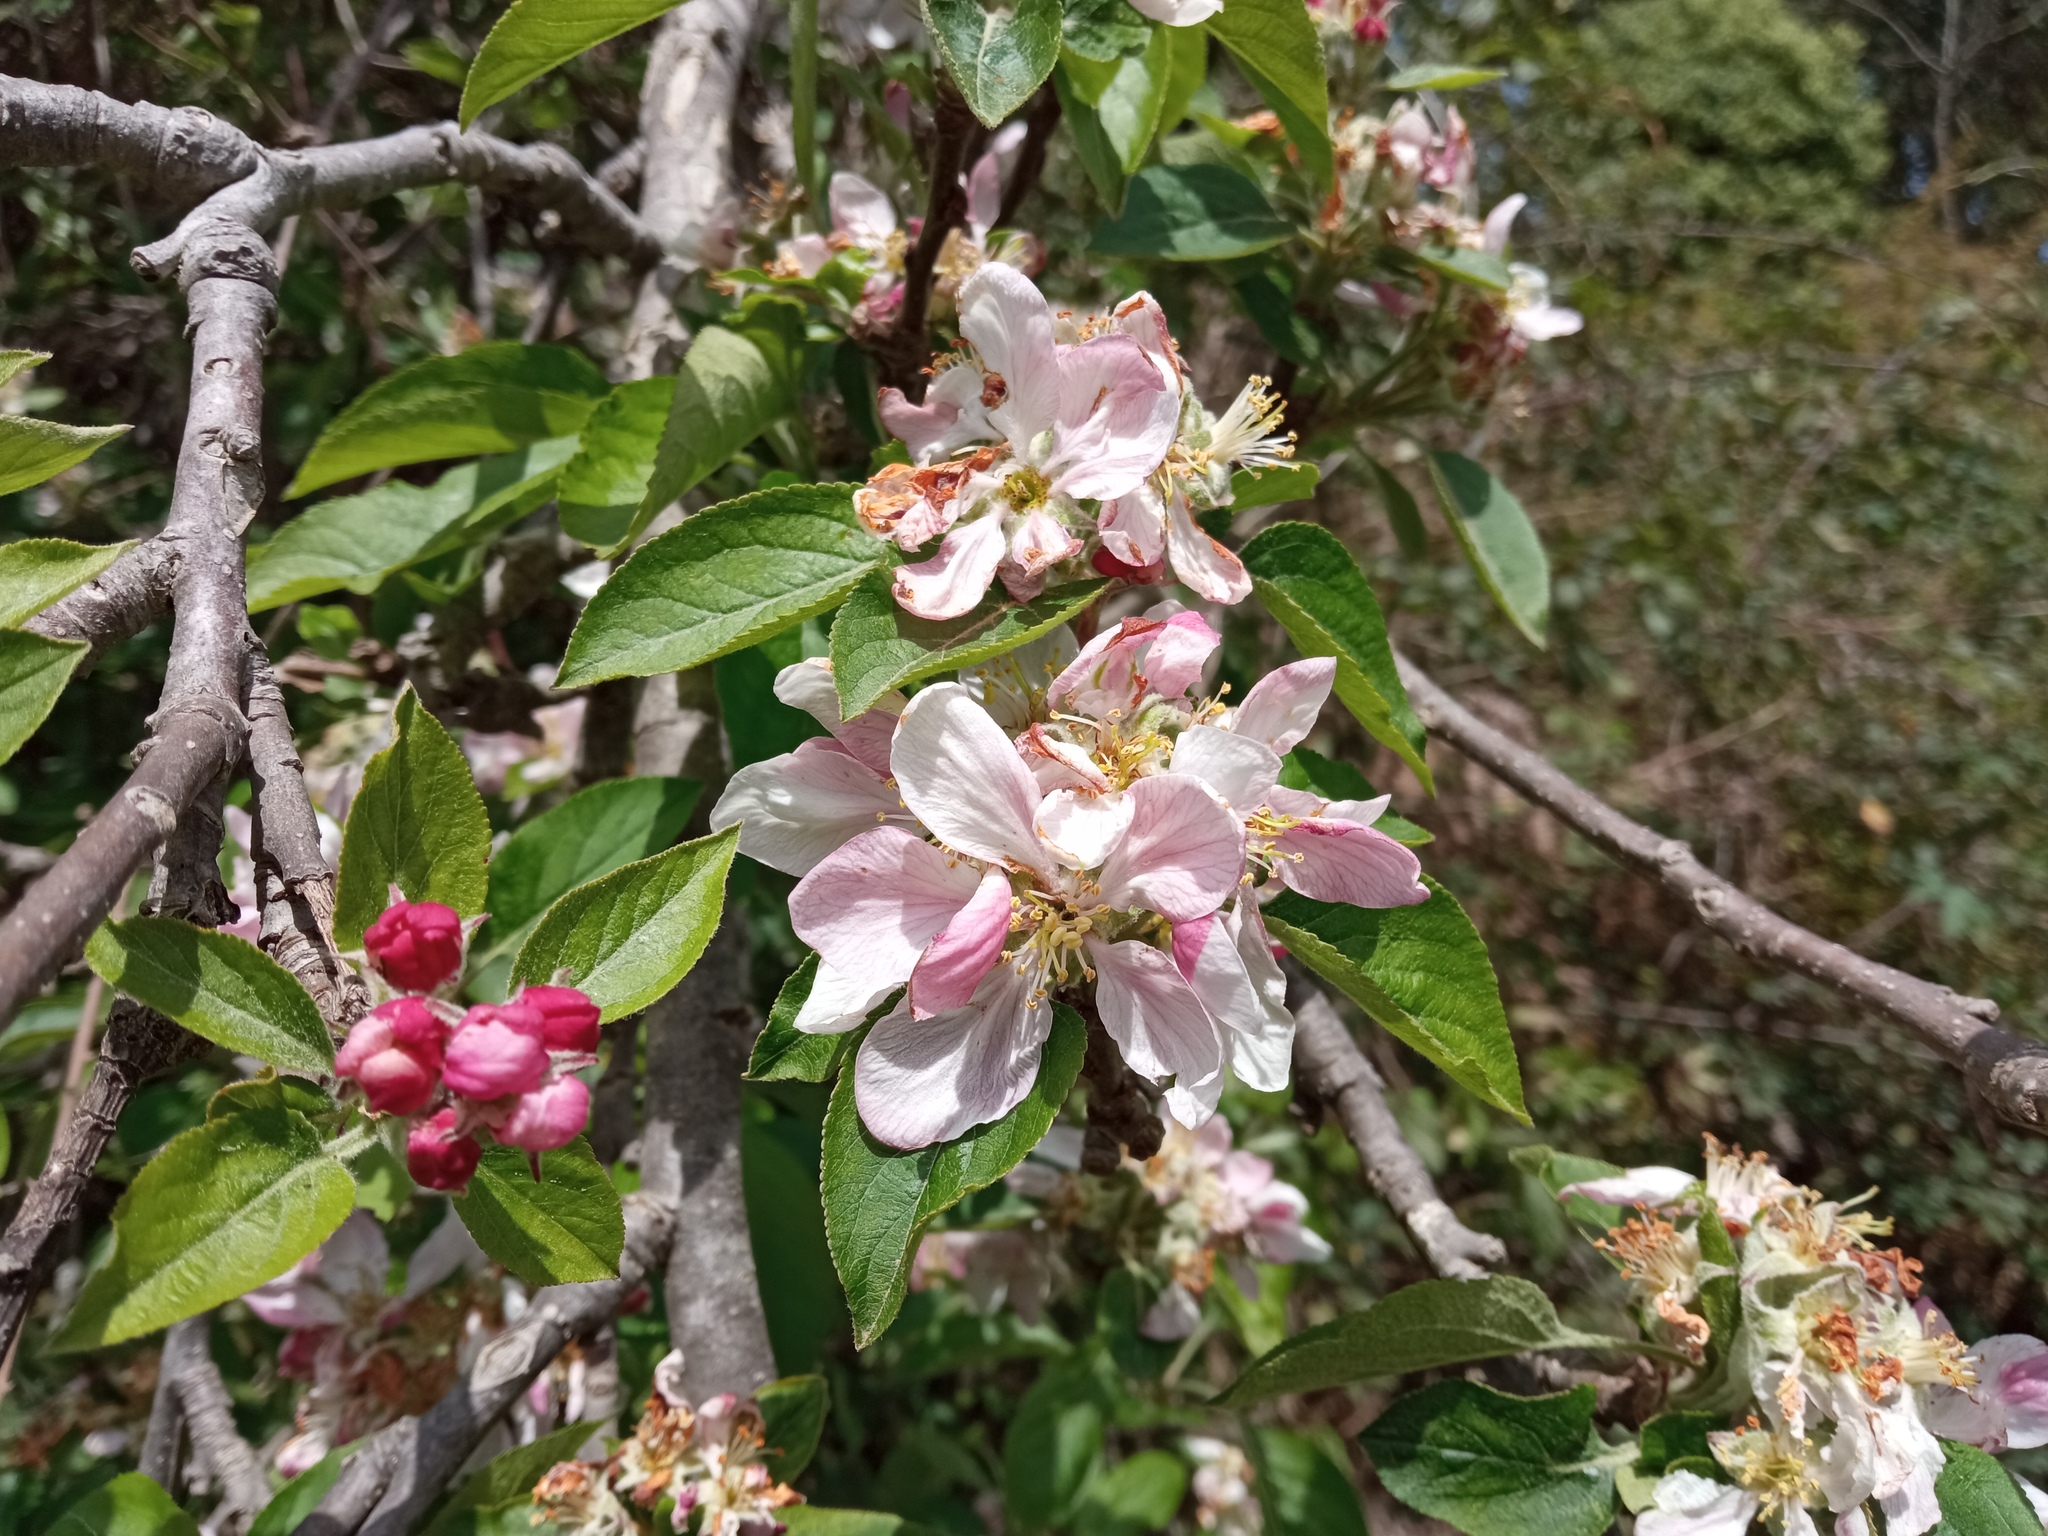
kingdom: Plantae
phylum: Tracheophyta
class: Magnoliopsida
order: Rosales
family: Rosaceae
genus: Malus
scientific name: Malus domestica
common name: Apple
